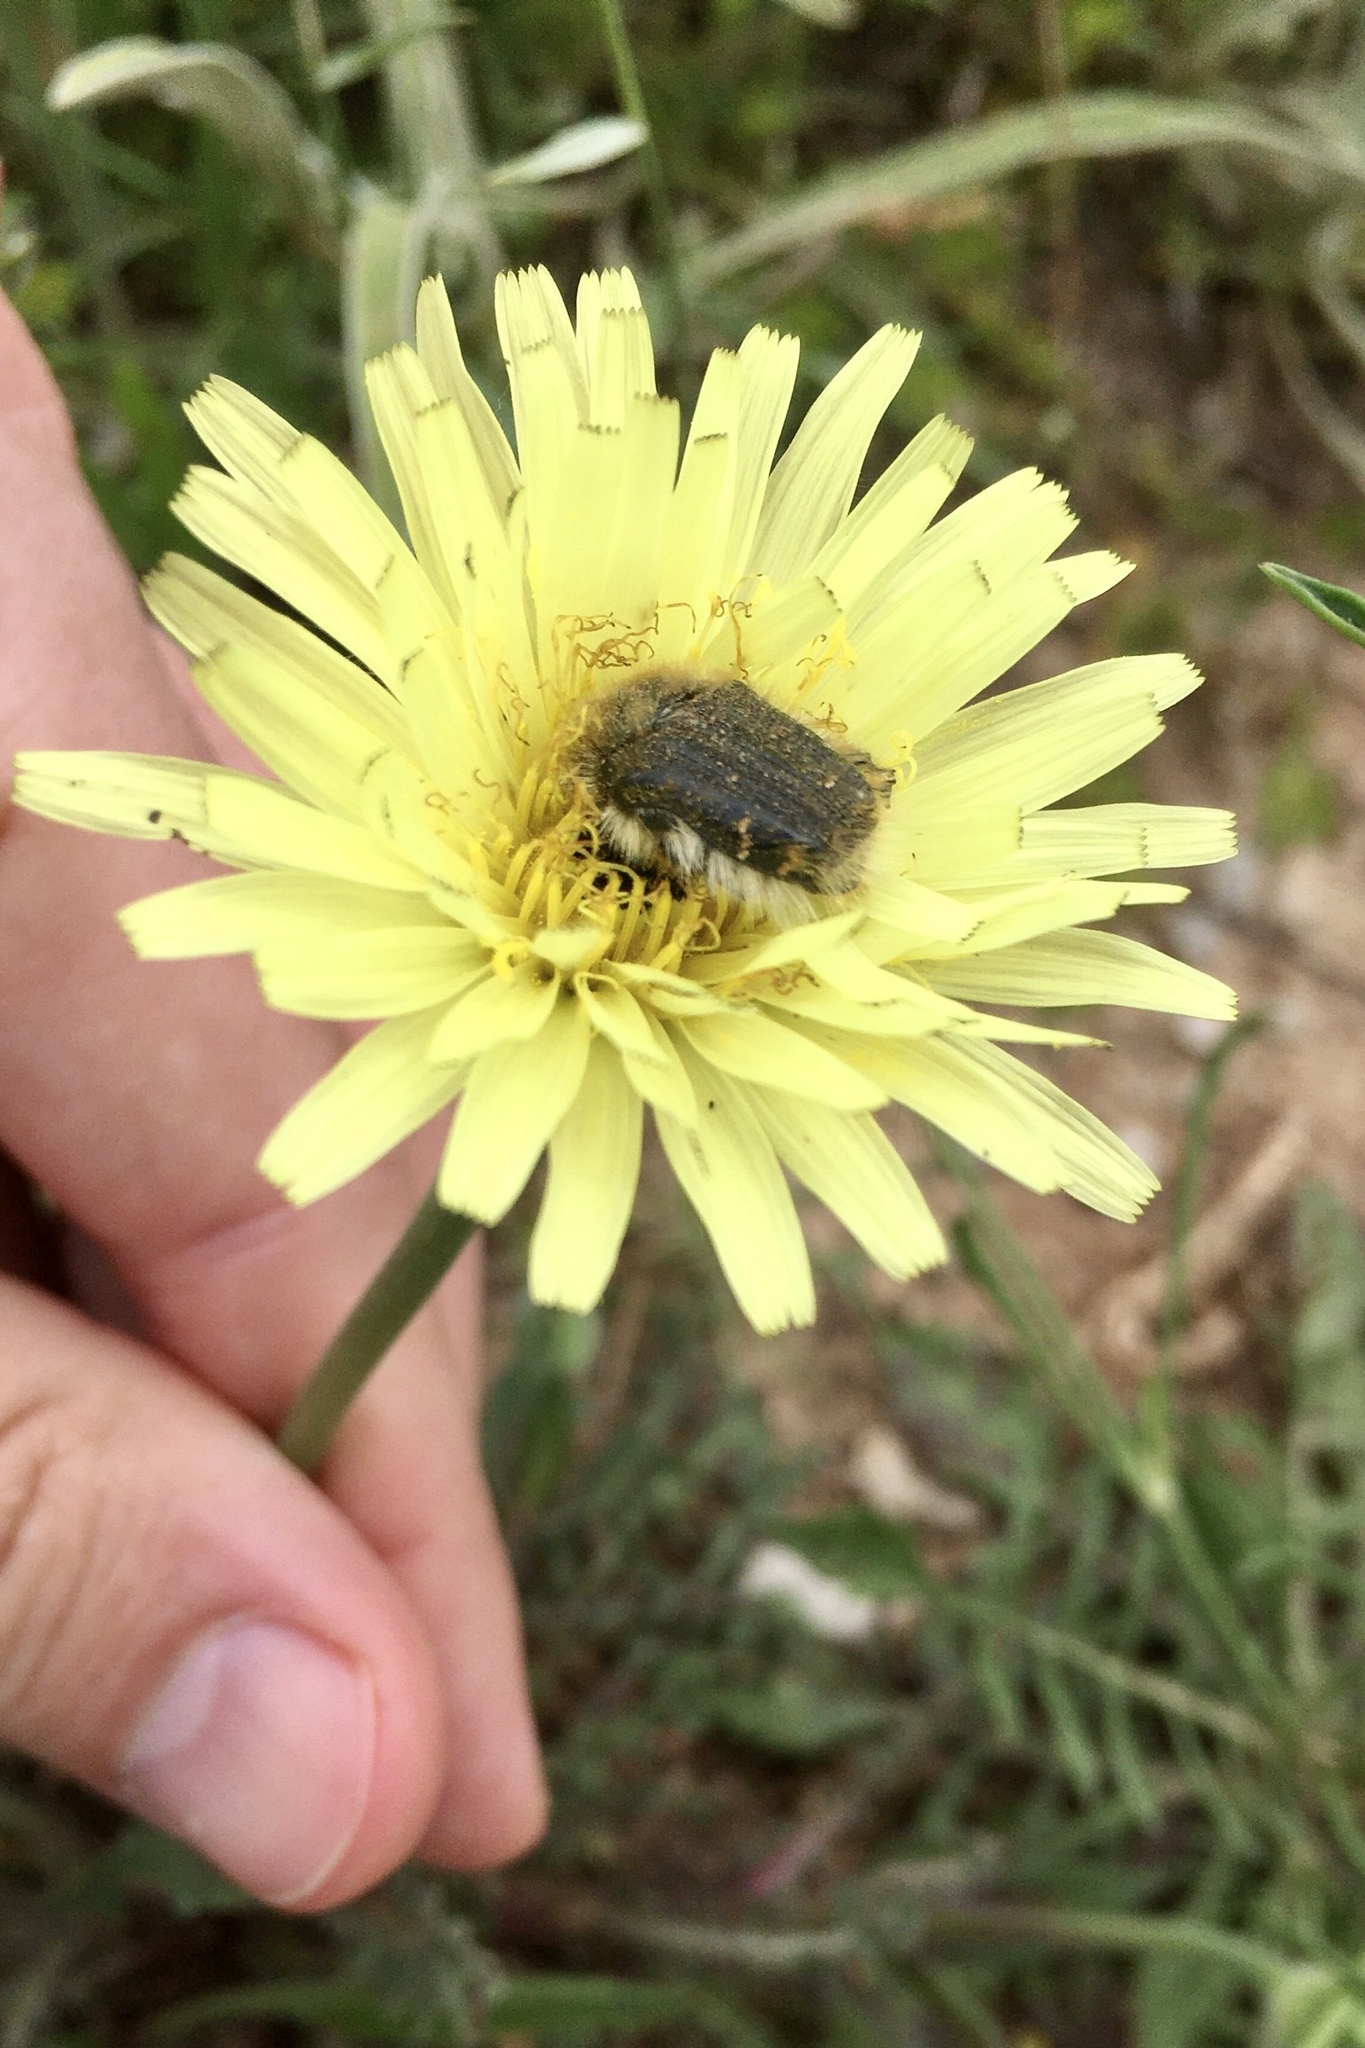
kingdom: Animalia
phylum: Arthropoda
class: Insecta
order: Coleoptera
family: Scarabaeidae
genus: Tropinota
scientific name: Tropinota squalida
